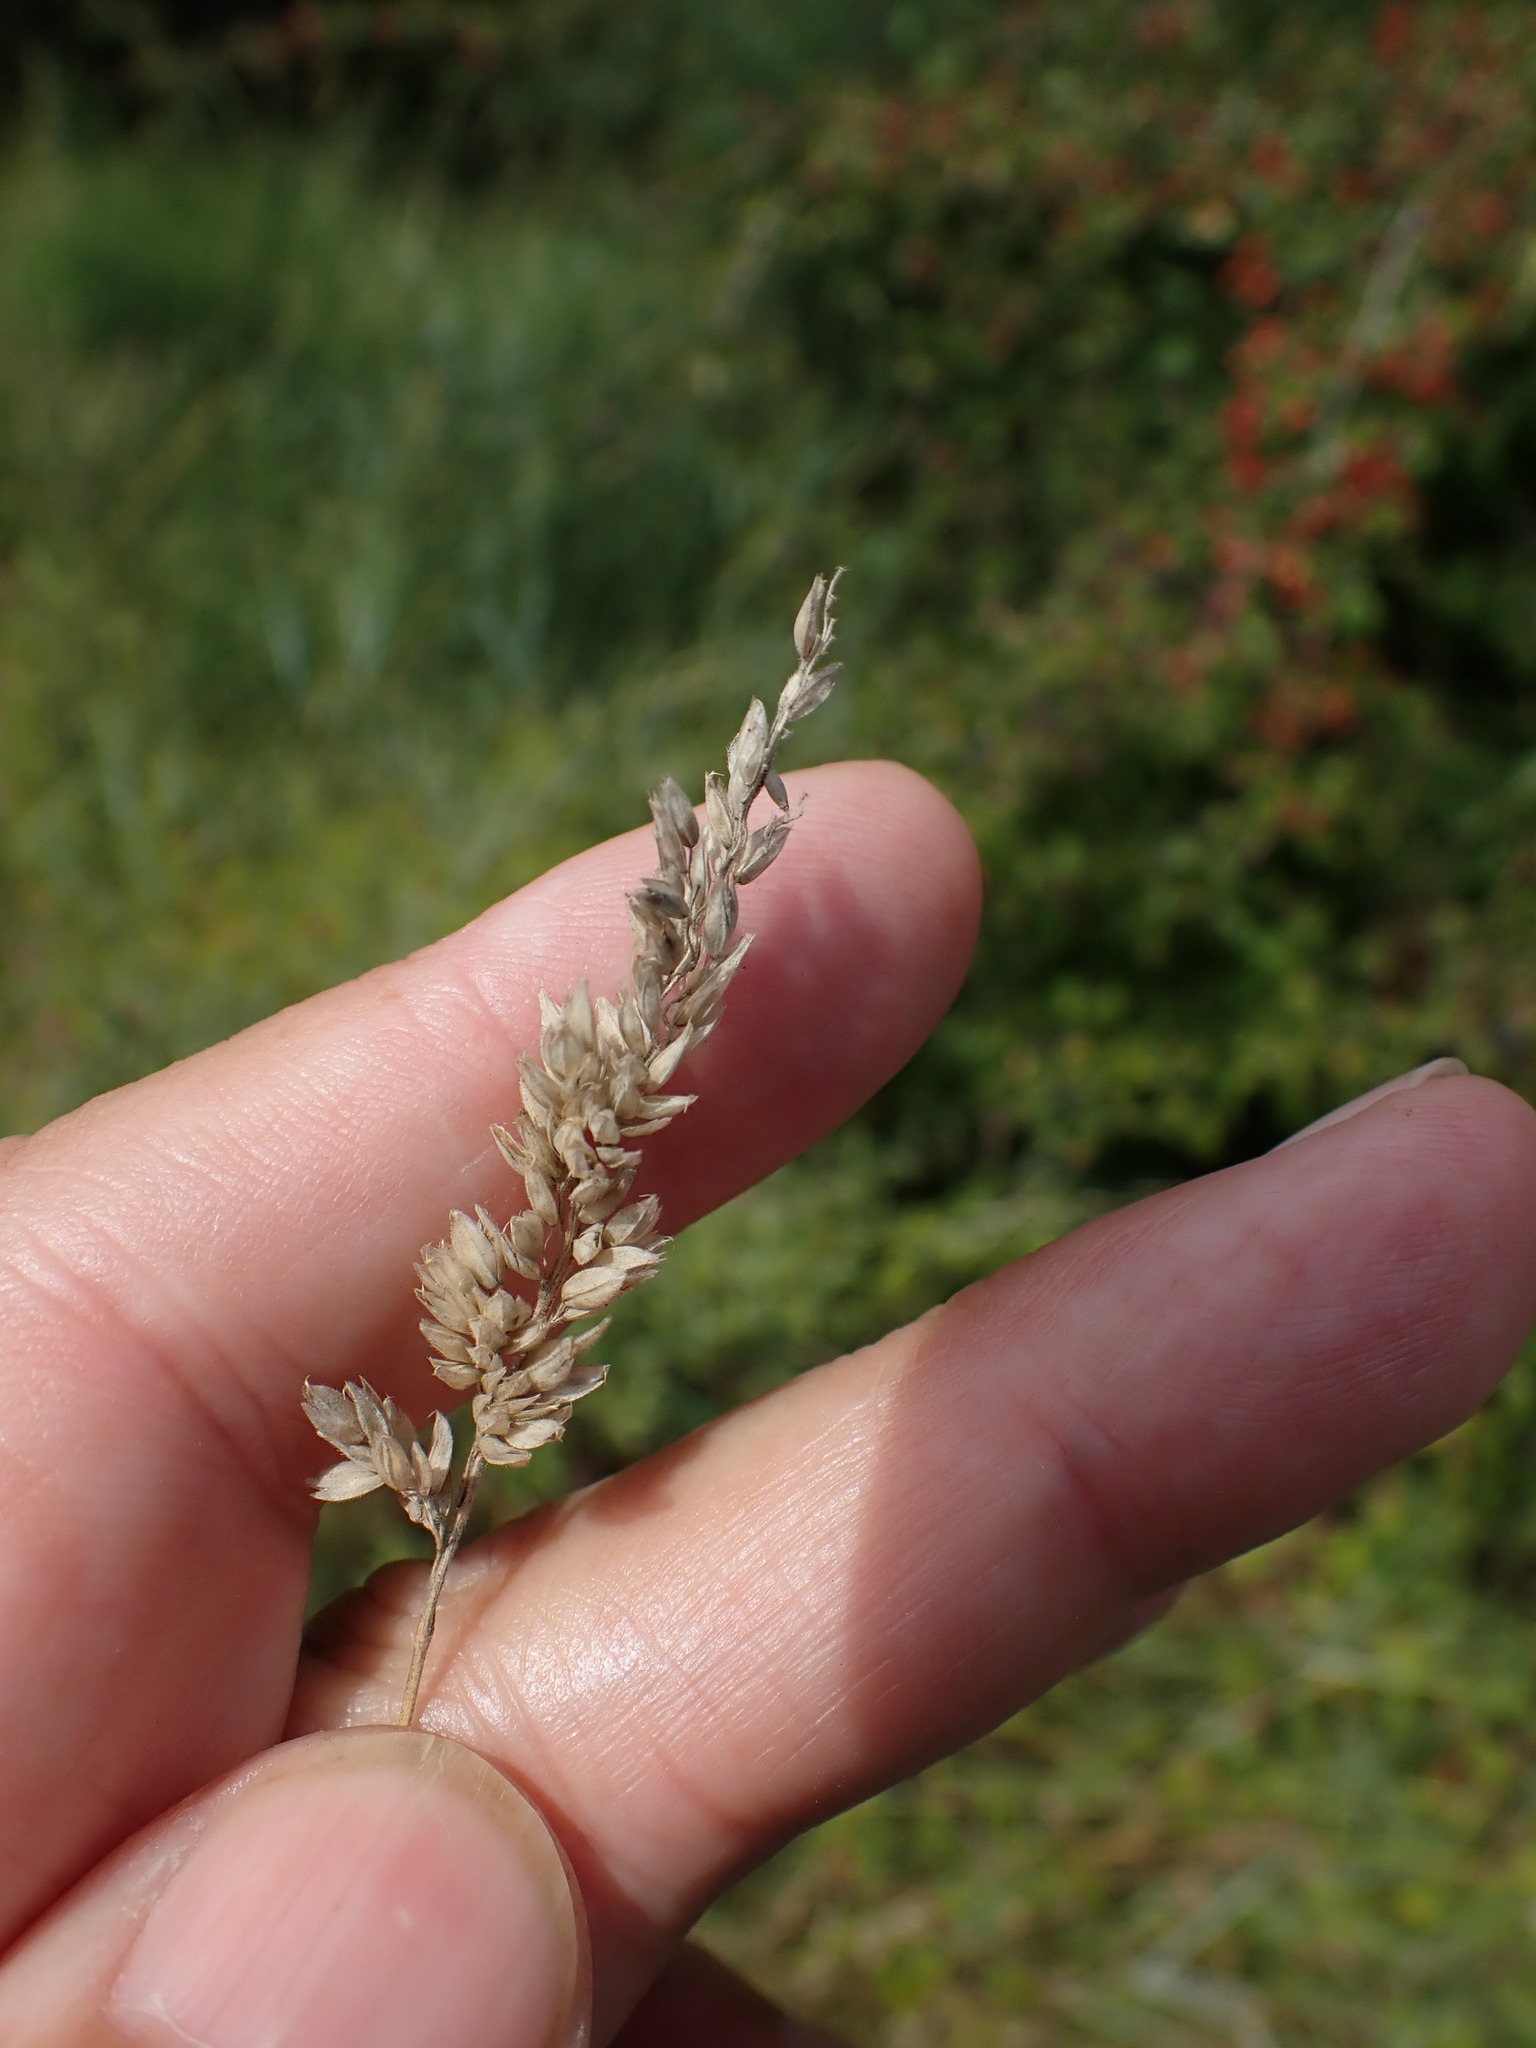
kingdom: Plantae
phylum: Tracheophyta
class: Liliopsida
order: Poales
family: Poaceae
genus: Holcus
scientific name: Holcus lanatus
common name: Yorkshire-fog
